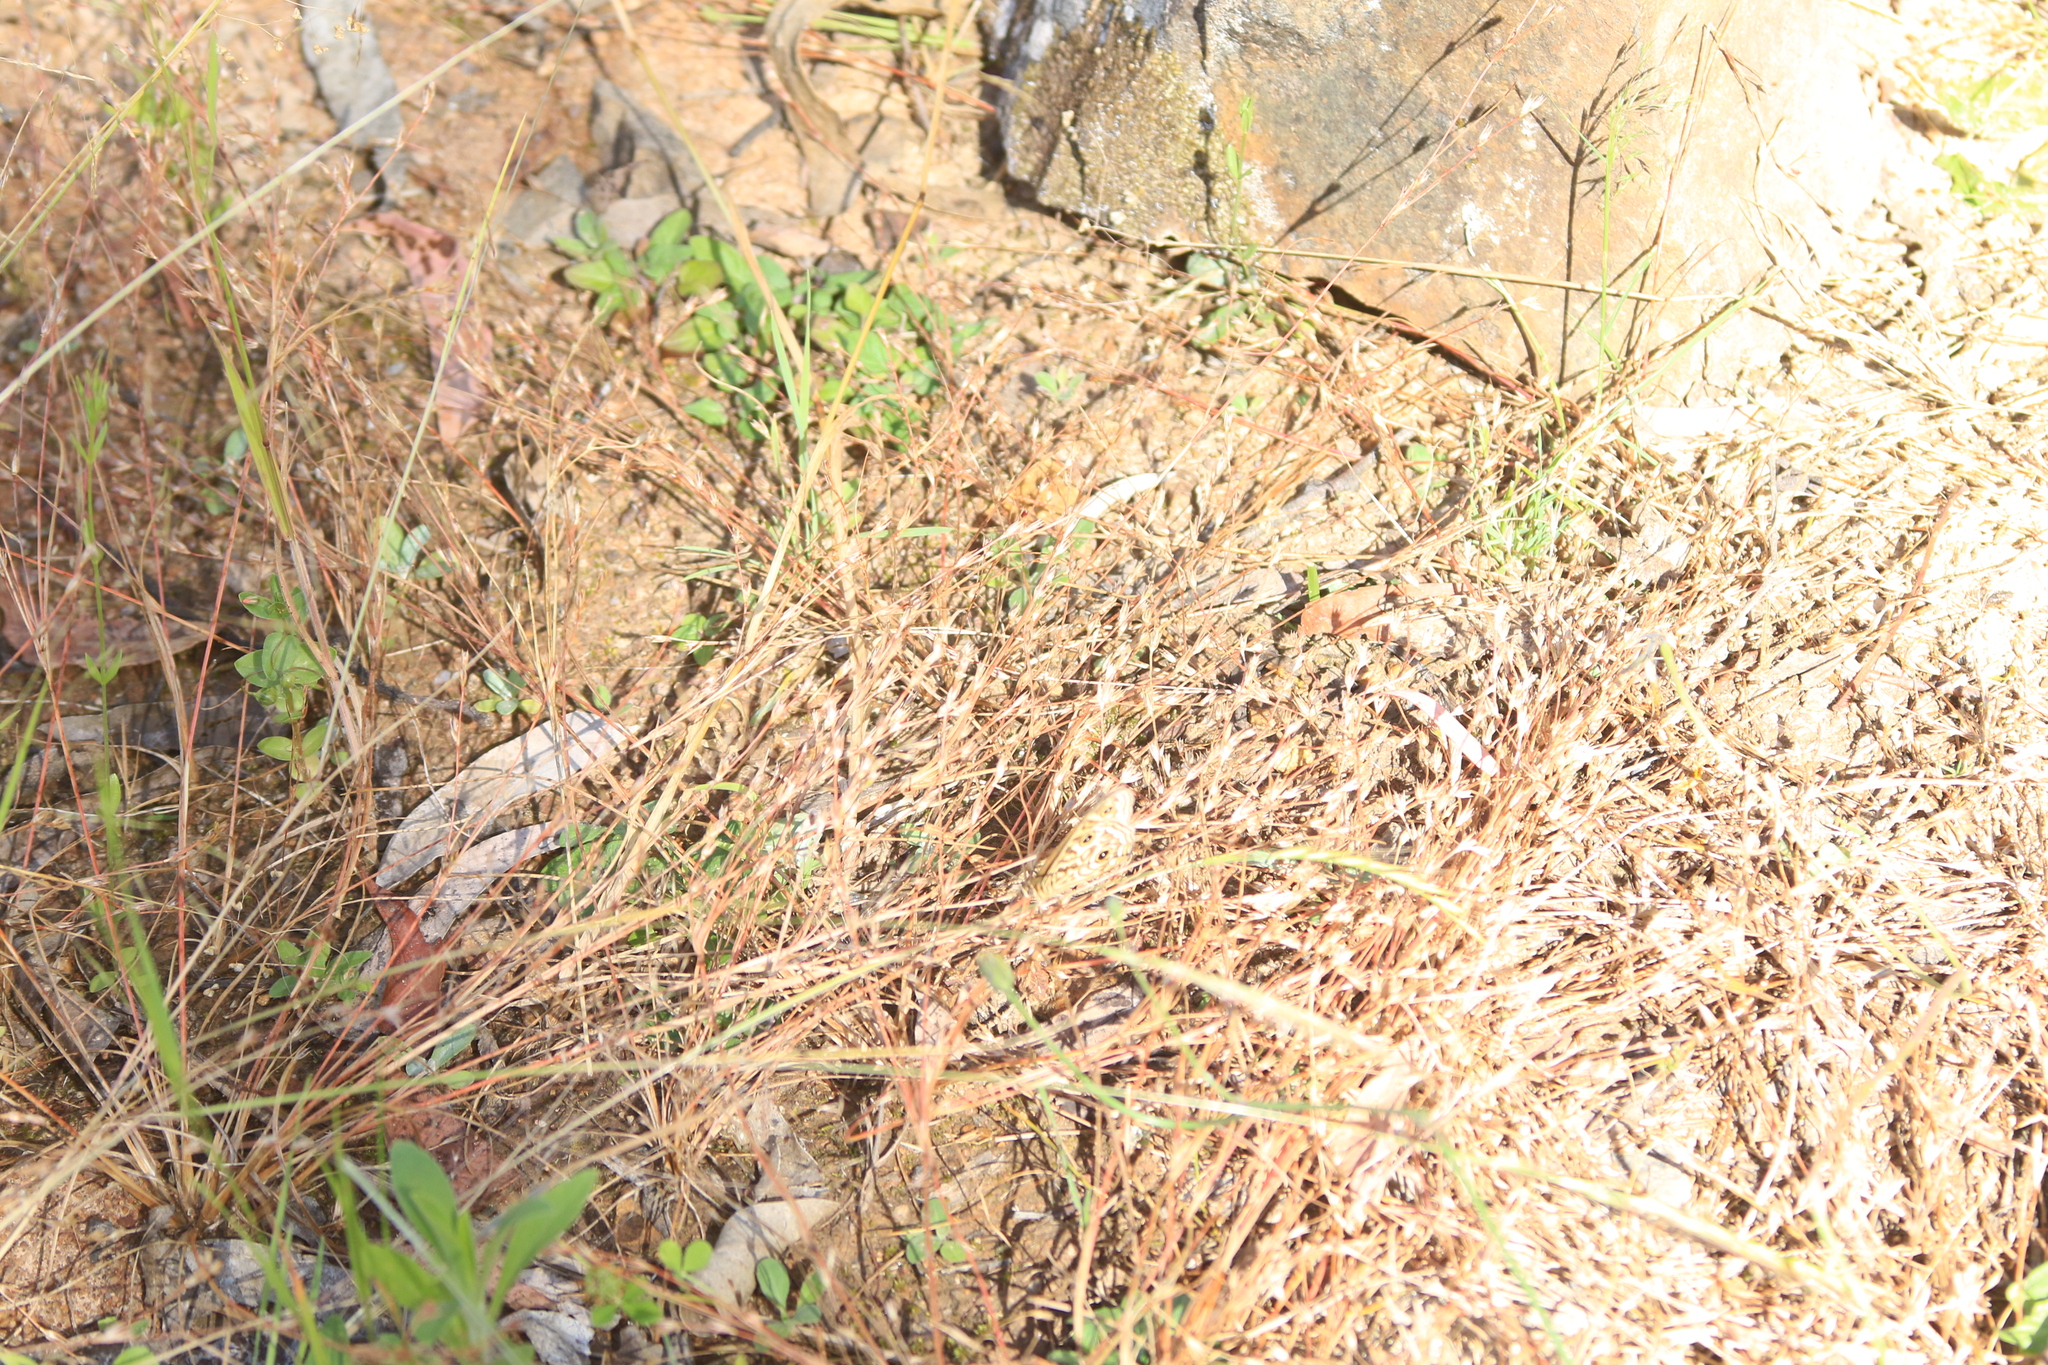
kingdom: Animalia
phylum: Arthropoda
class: Insecta
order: Lepidoptera
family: Nymphalidae
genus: Geitoneura
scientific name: Geitoneura acantha
